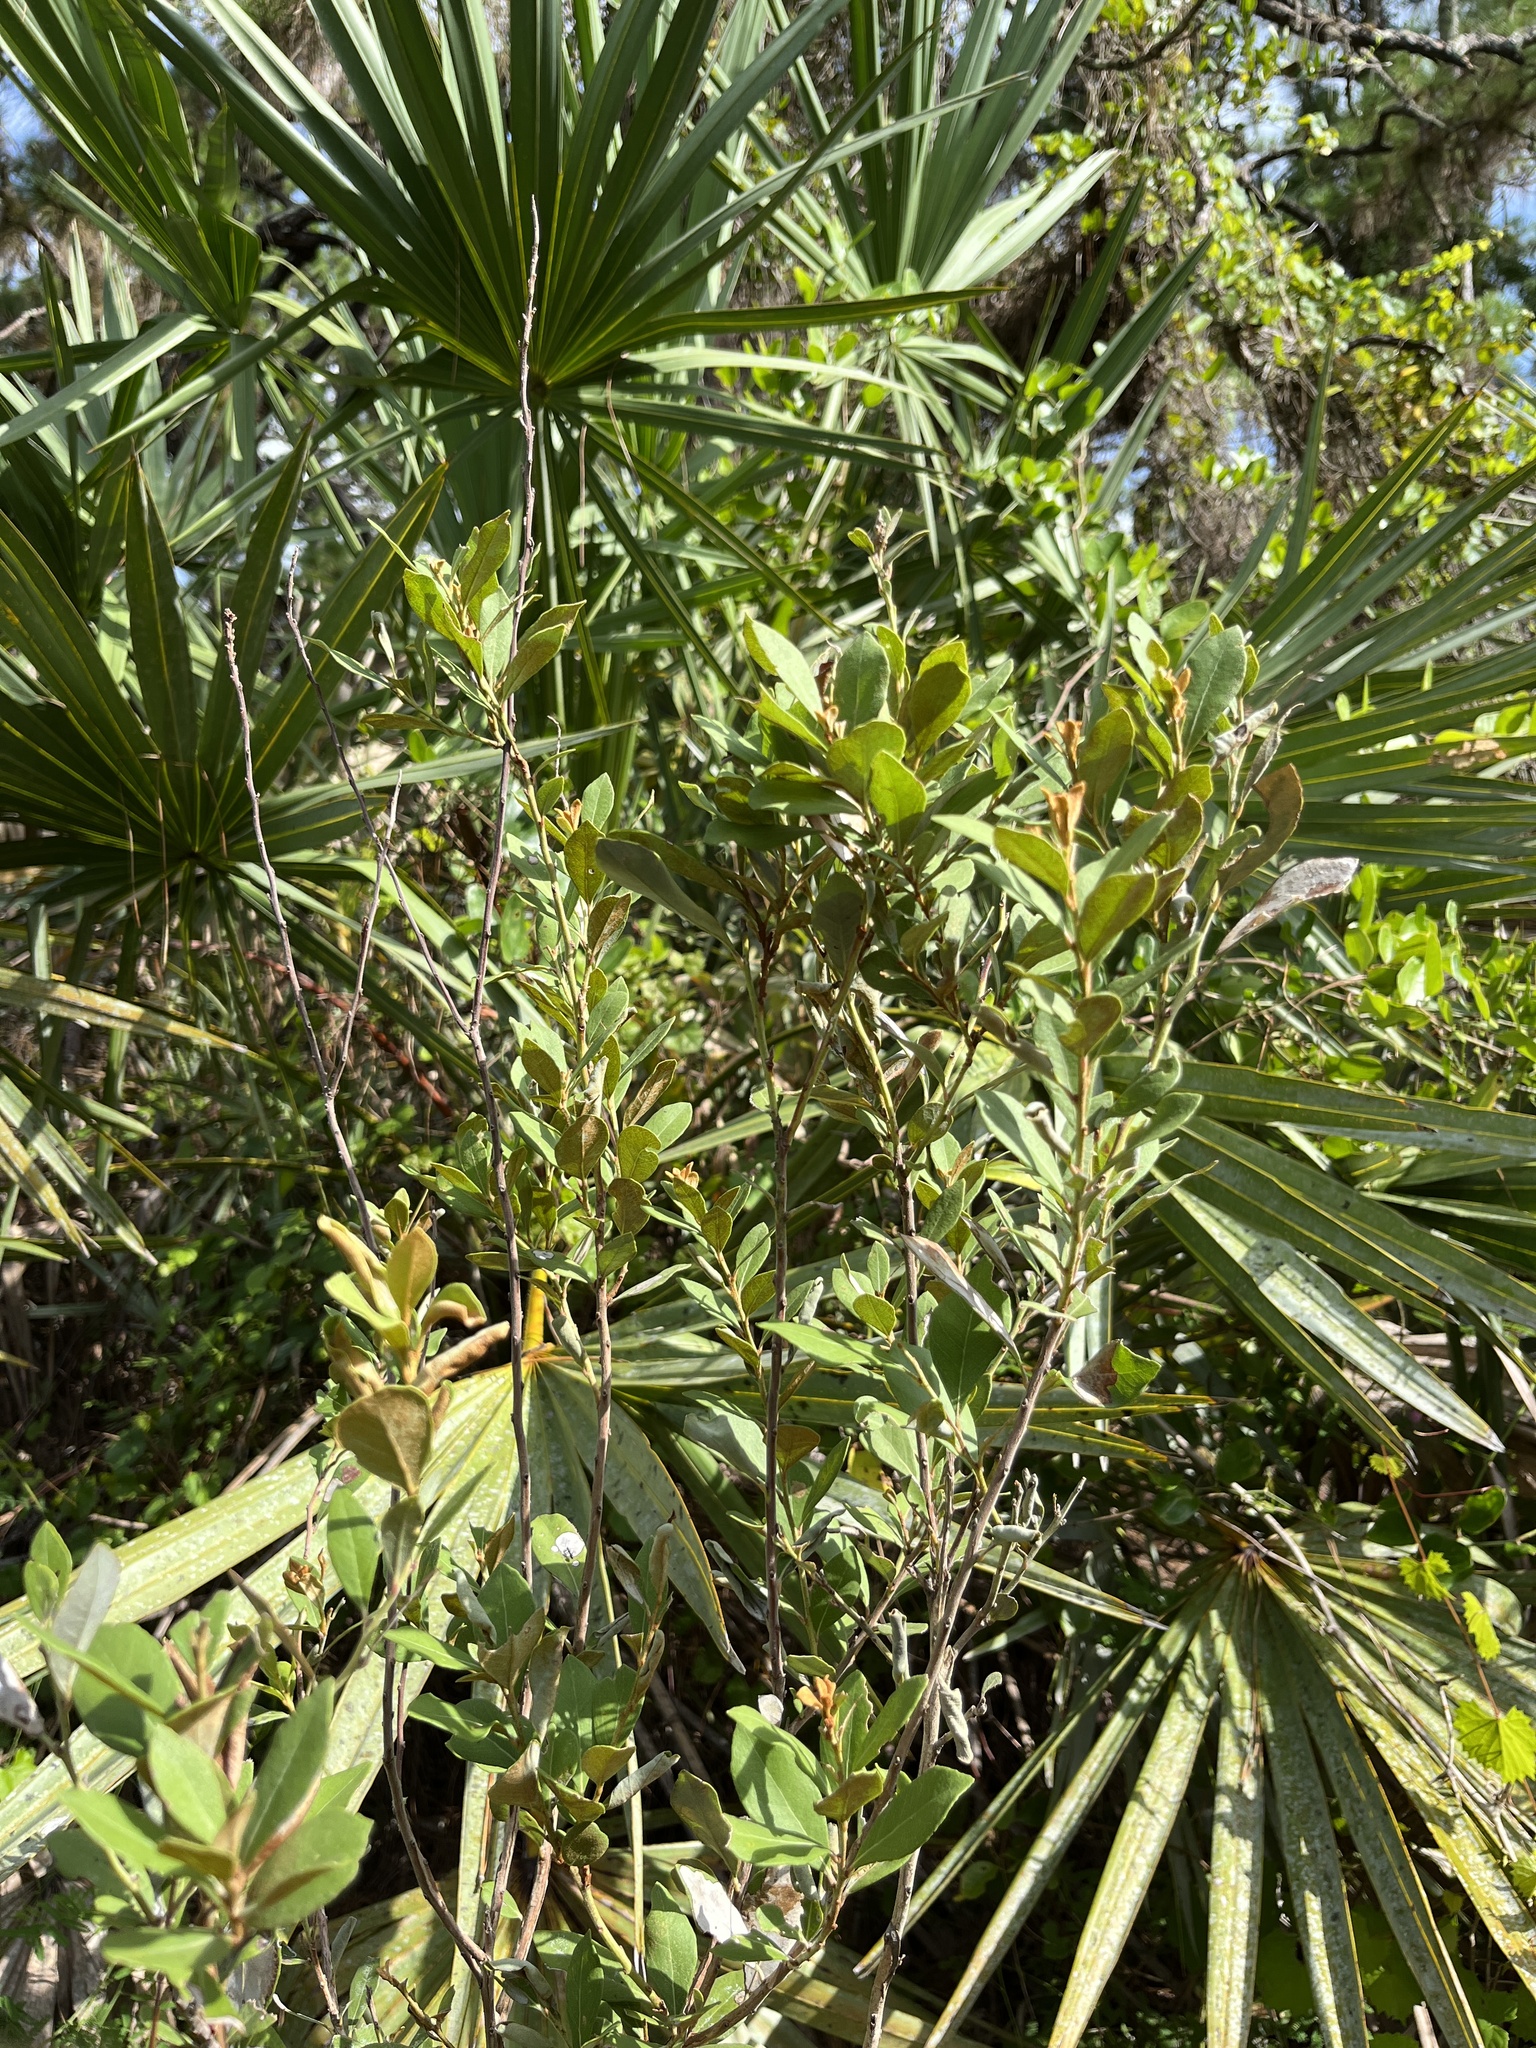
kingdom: Plantae
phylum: Tracheophyta
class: Magnoliopsida
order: Ericales
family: Ericaceae
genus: Lyonia
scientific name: Lyonia fruticosa
